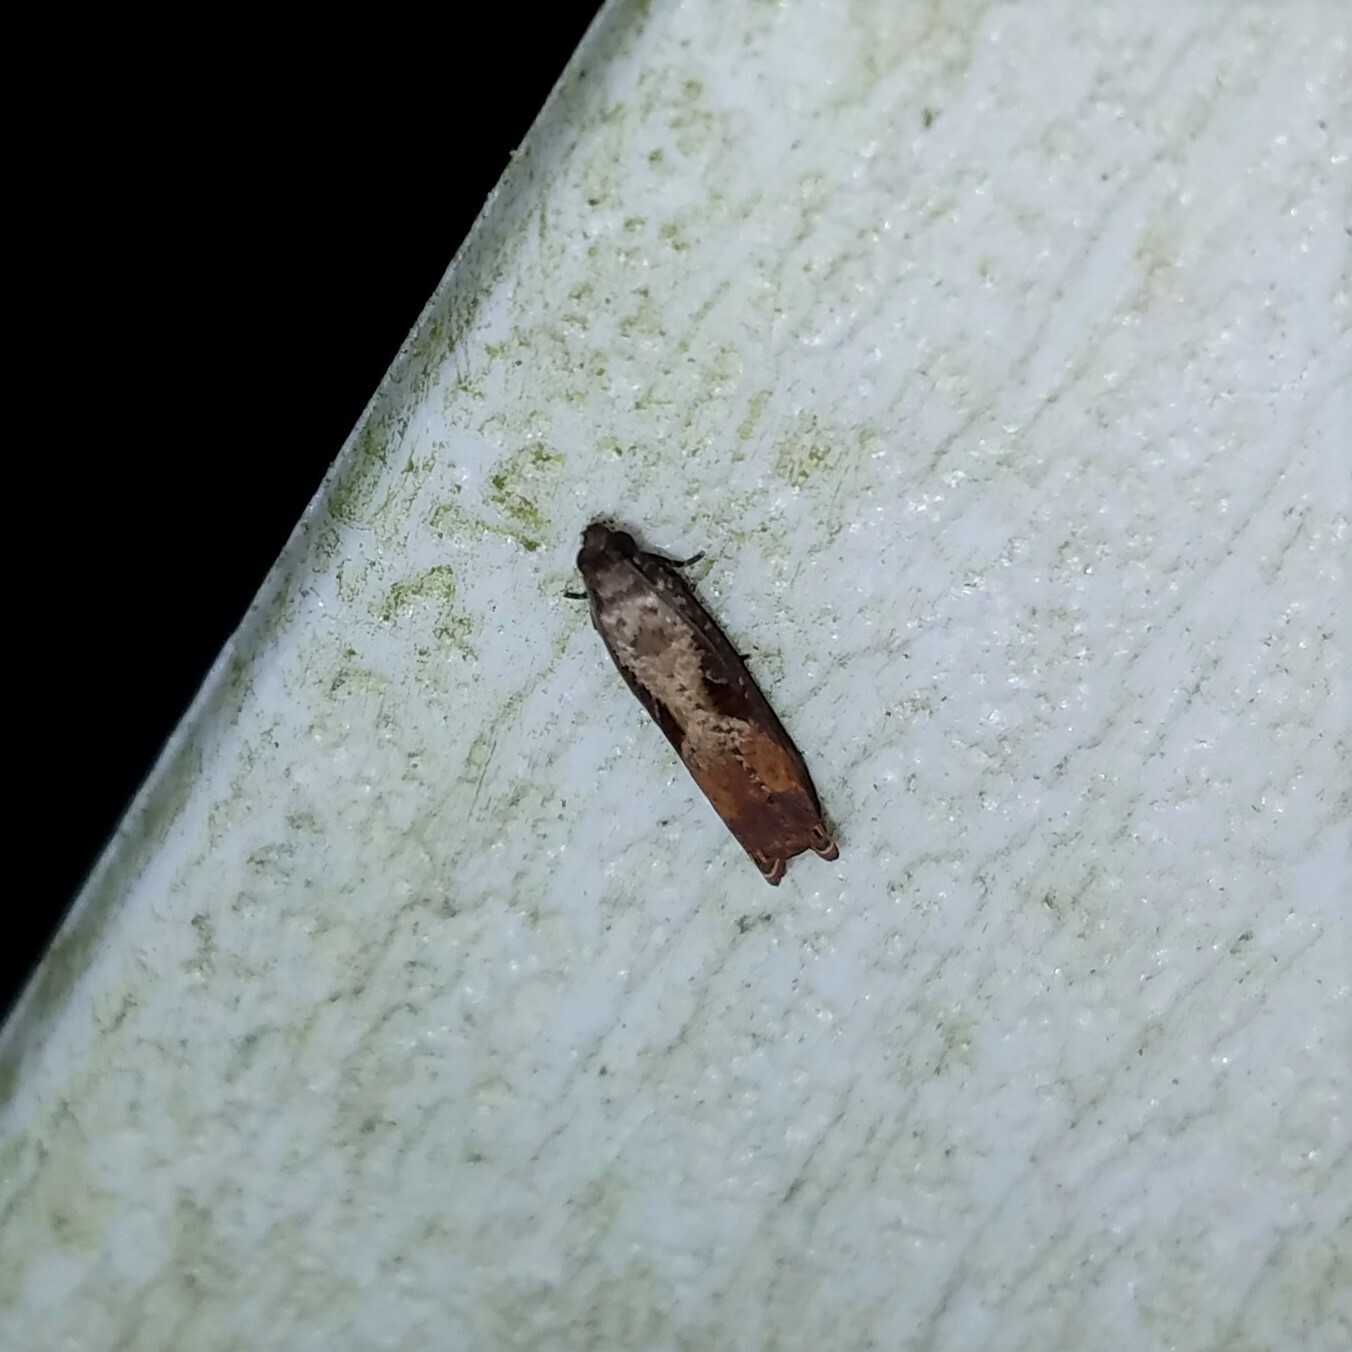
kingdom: Animalia
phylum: Arthropoda
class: Insecta
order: Lepidoptera
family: Tortricidae
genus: Episimus
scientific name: Episimus tyrius
